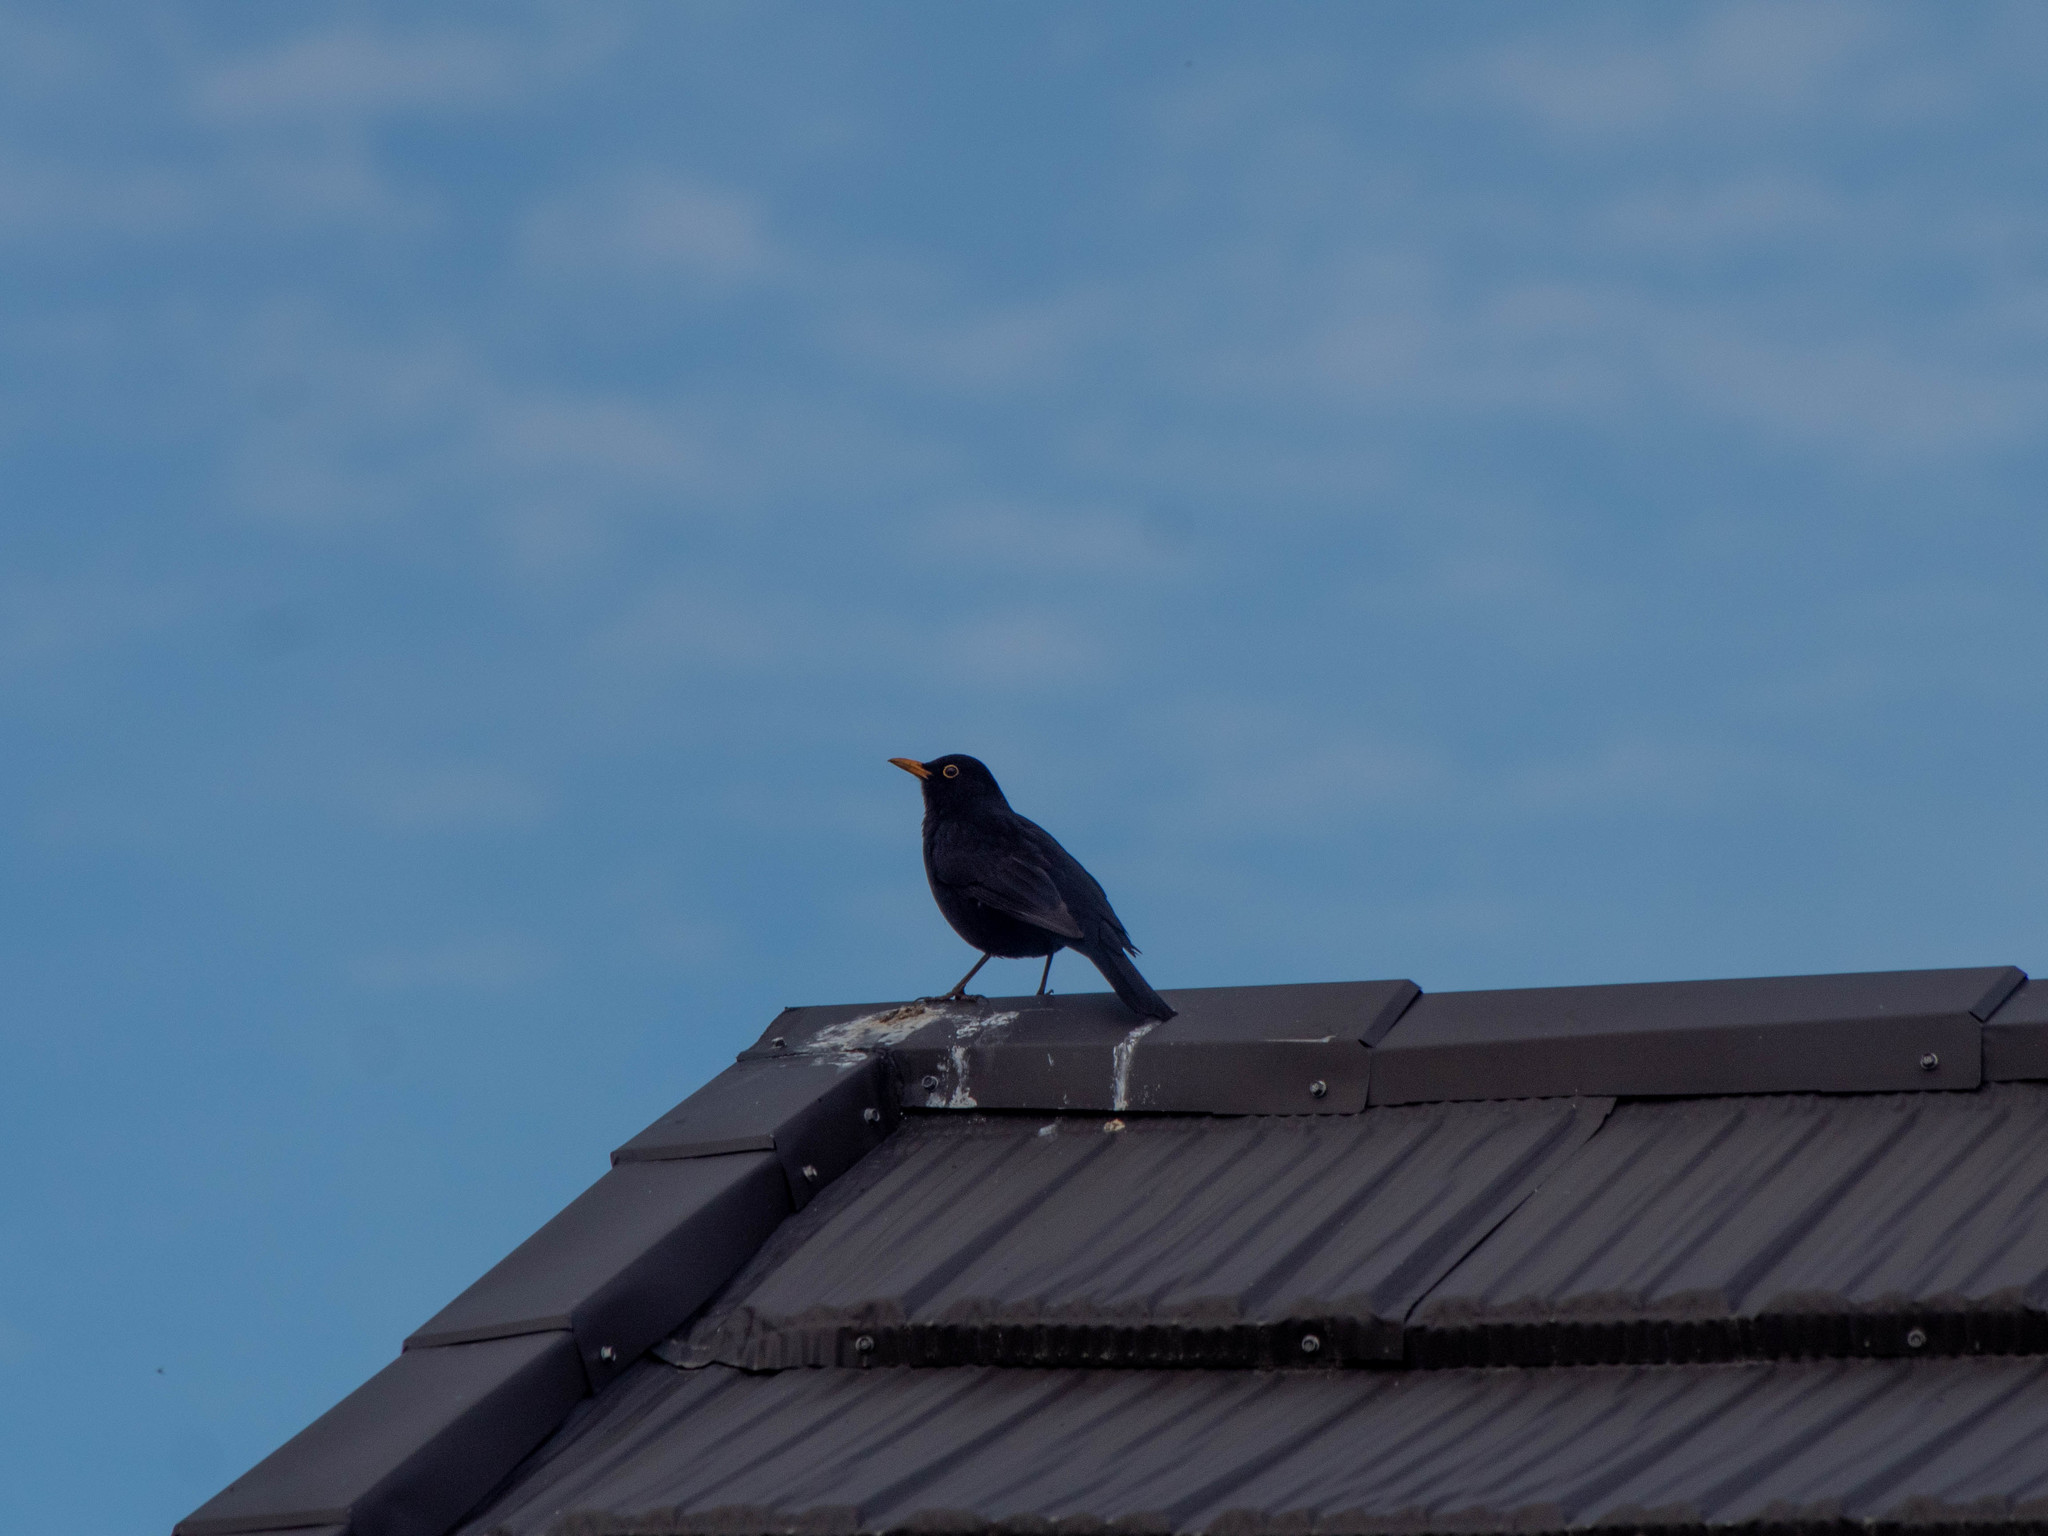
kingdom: Animalia
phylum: Chordata
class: Aves
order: Passeriformes
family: Turdidae
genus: Turdus
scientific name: Turdus merula
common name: Common blackbird
